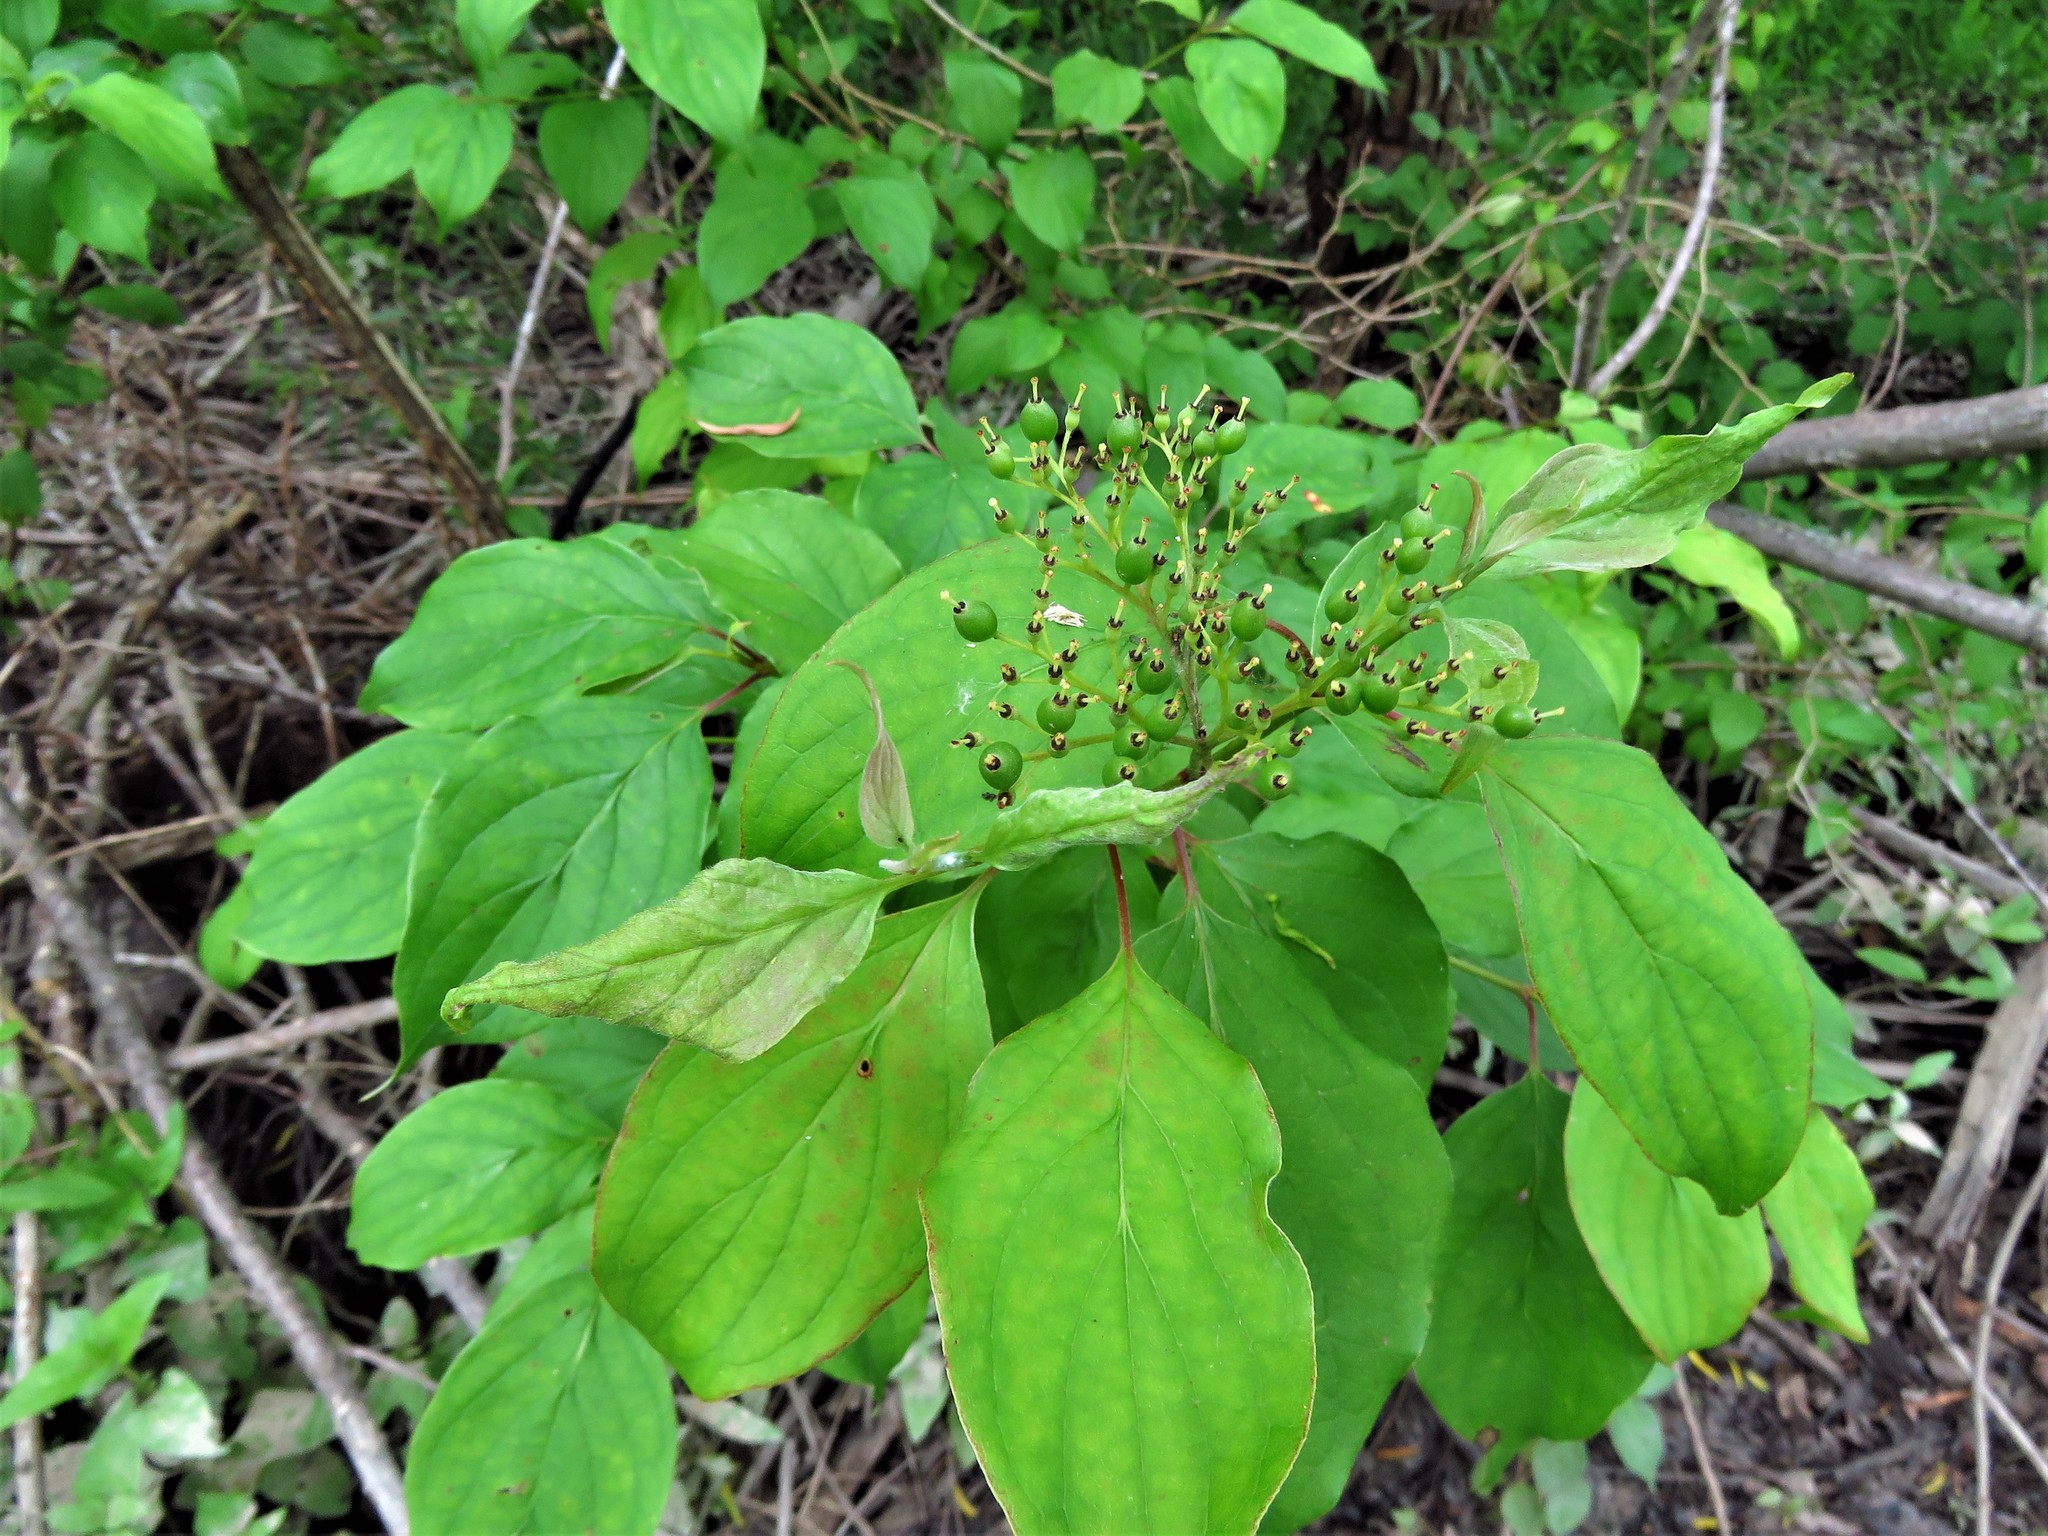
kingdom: Plantae
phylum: Tracheophyta
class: Magnoliopsida
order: Cornales
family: Cornaceae
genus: Cornus
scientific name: Cornus drummondii
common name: Rough-leaf dogwood
